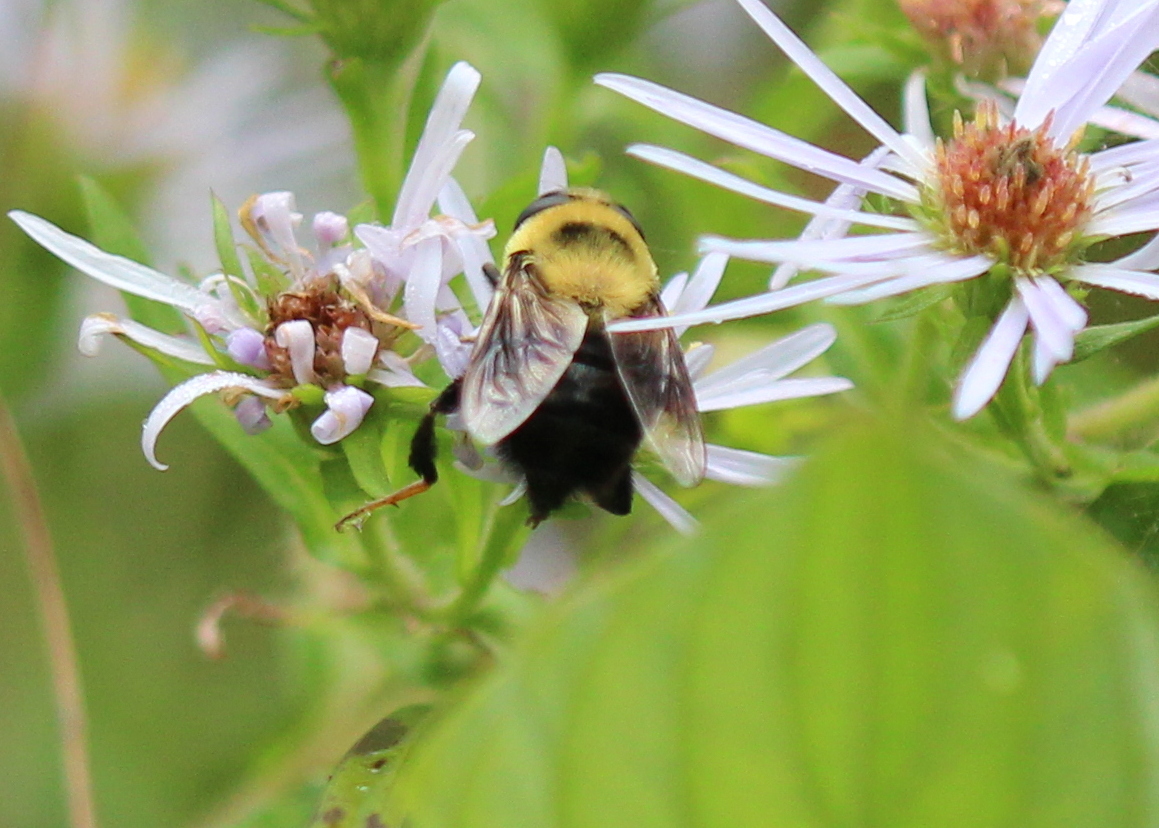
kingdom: Animalia
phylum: Arthropoda
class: Insecta
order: Diptera
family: Syrphidae
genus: Eristalis
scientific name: Eristalis flavipes
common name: Orange-legged drone fly
